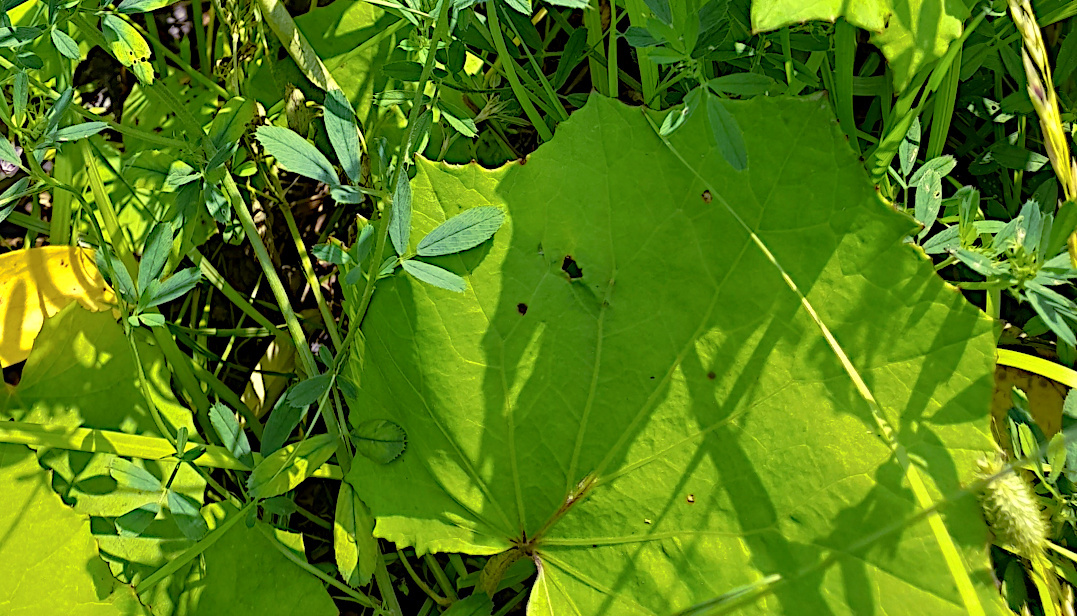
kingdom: Plantae
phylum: Tracheophyta
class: Magnoliopsida
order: Asterales
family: Asteraceae
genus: Tussilago
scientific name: Tussilago farfara
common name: Coltsfoot
